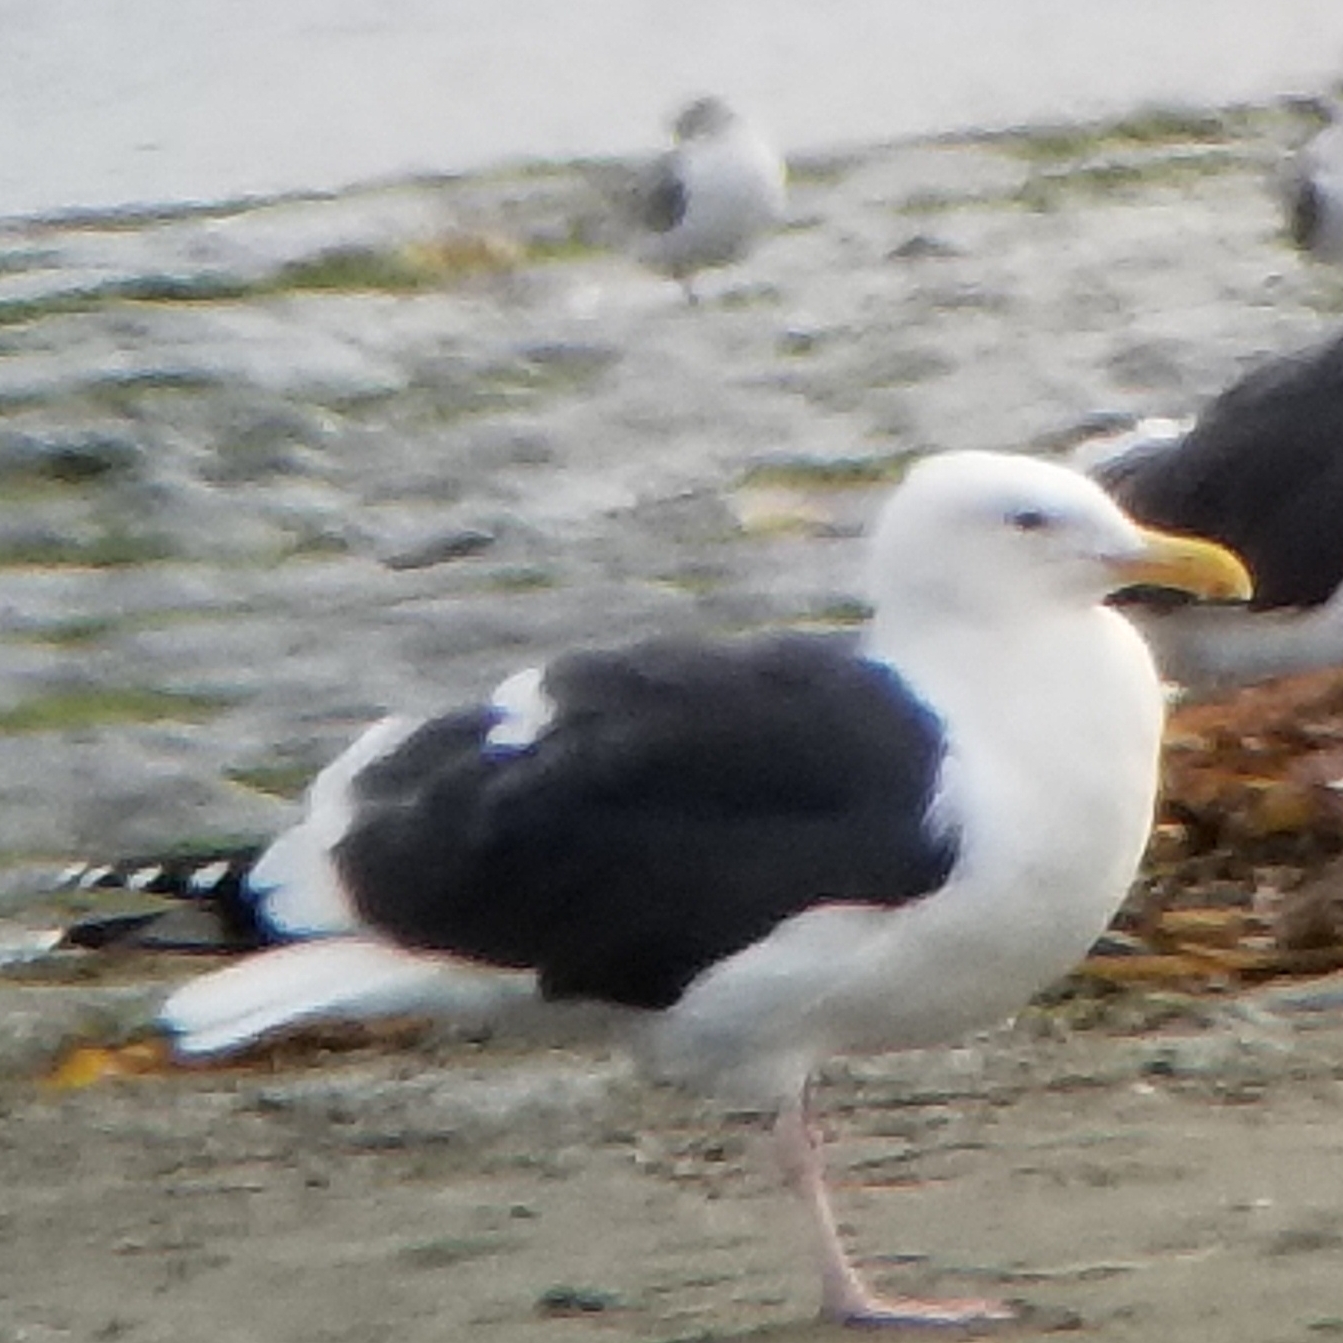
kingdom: Animalia
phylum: Chordata
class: Aves
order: Charadriiformes
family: Laridae
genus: Larus
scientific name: Larus occidentalis
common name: Western gull
